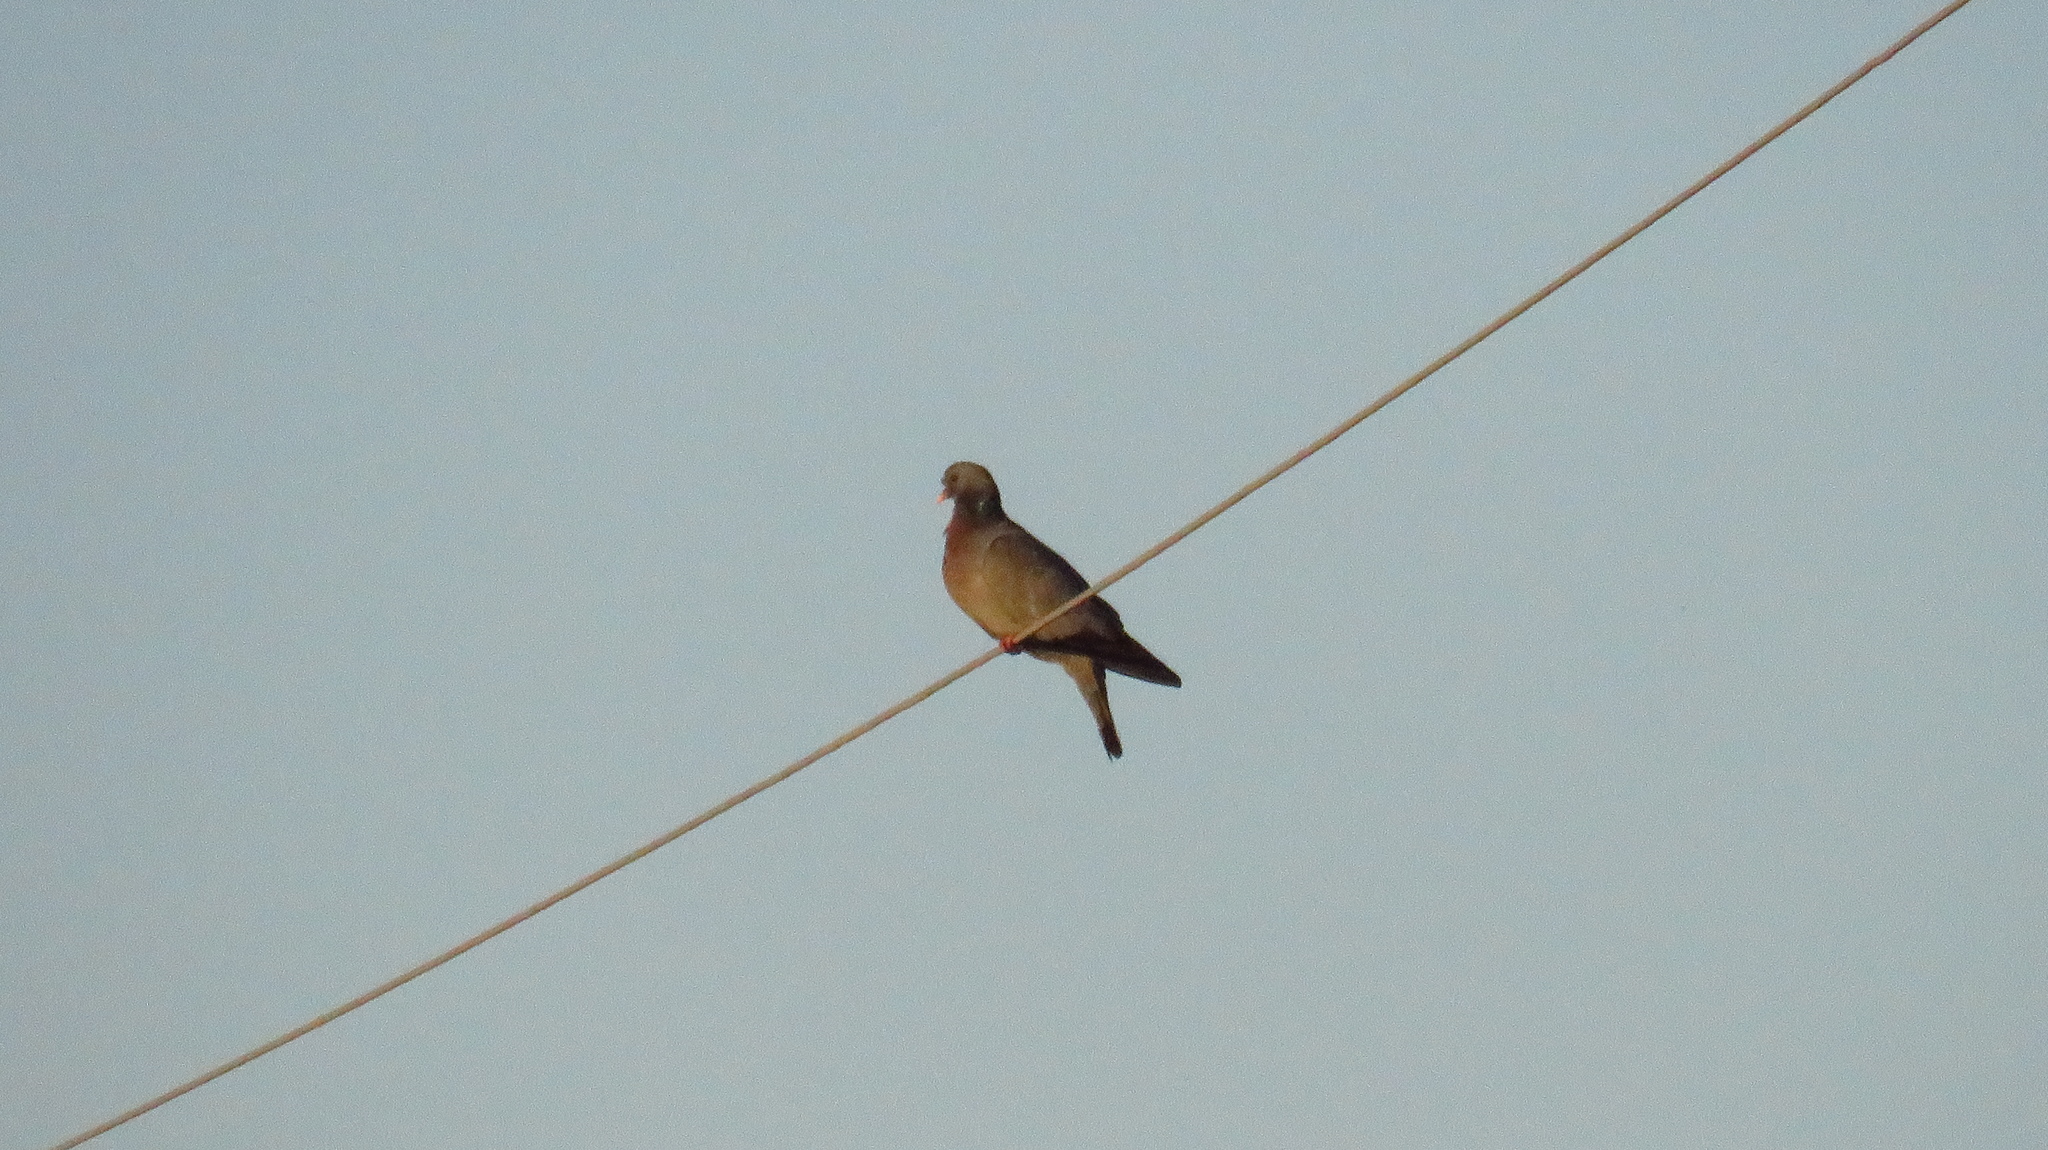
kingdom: Animalia
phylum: Chordata
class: Aves
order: Columbiformes
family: Columbidae
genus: Columba
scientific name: Columba oenas
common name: Stock dove
